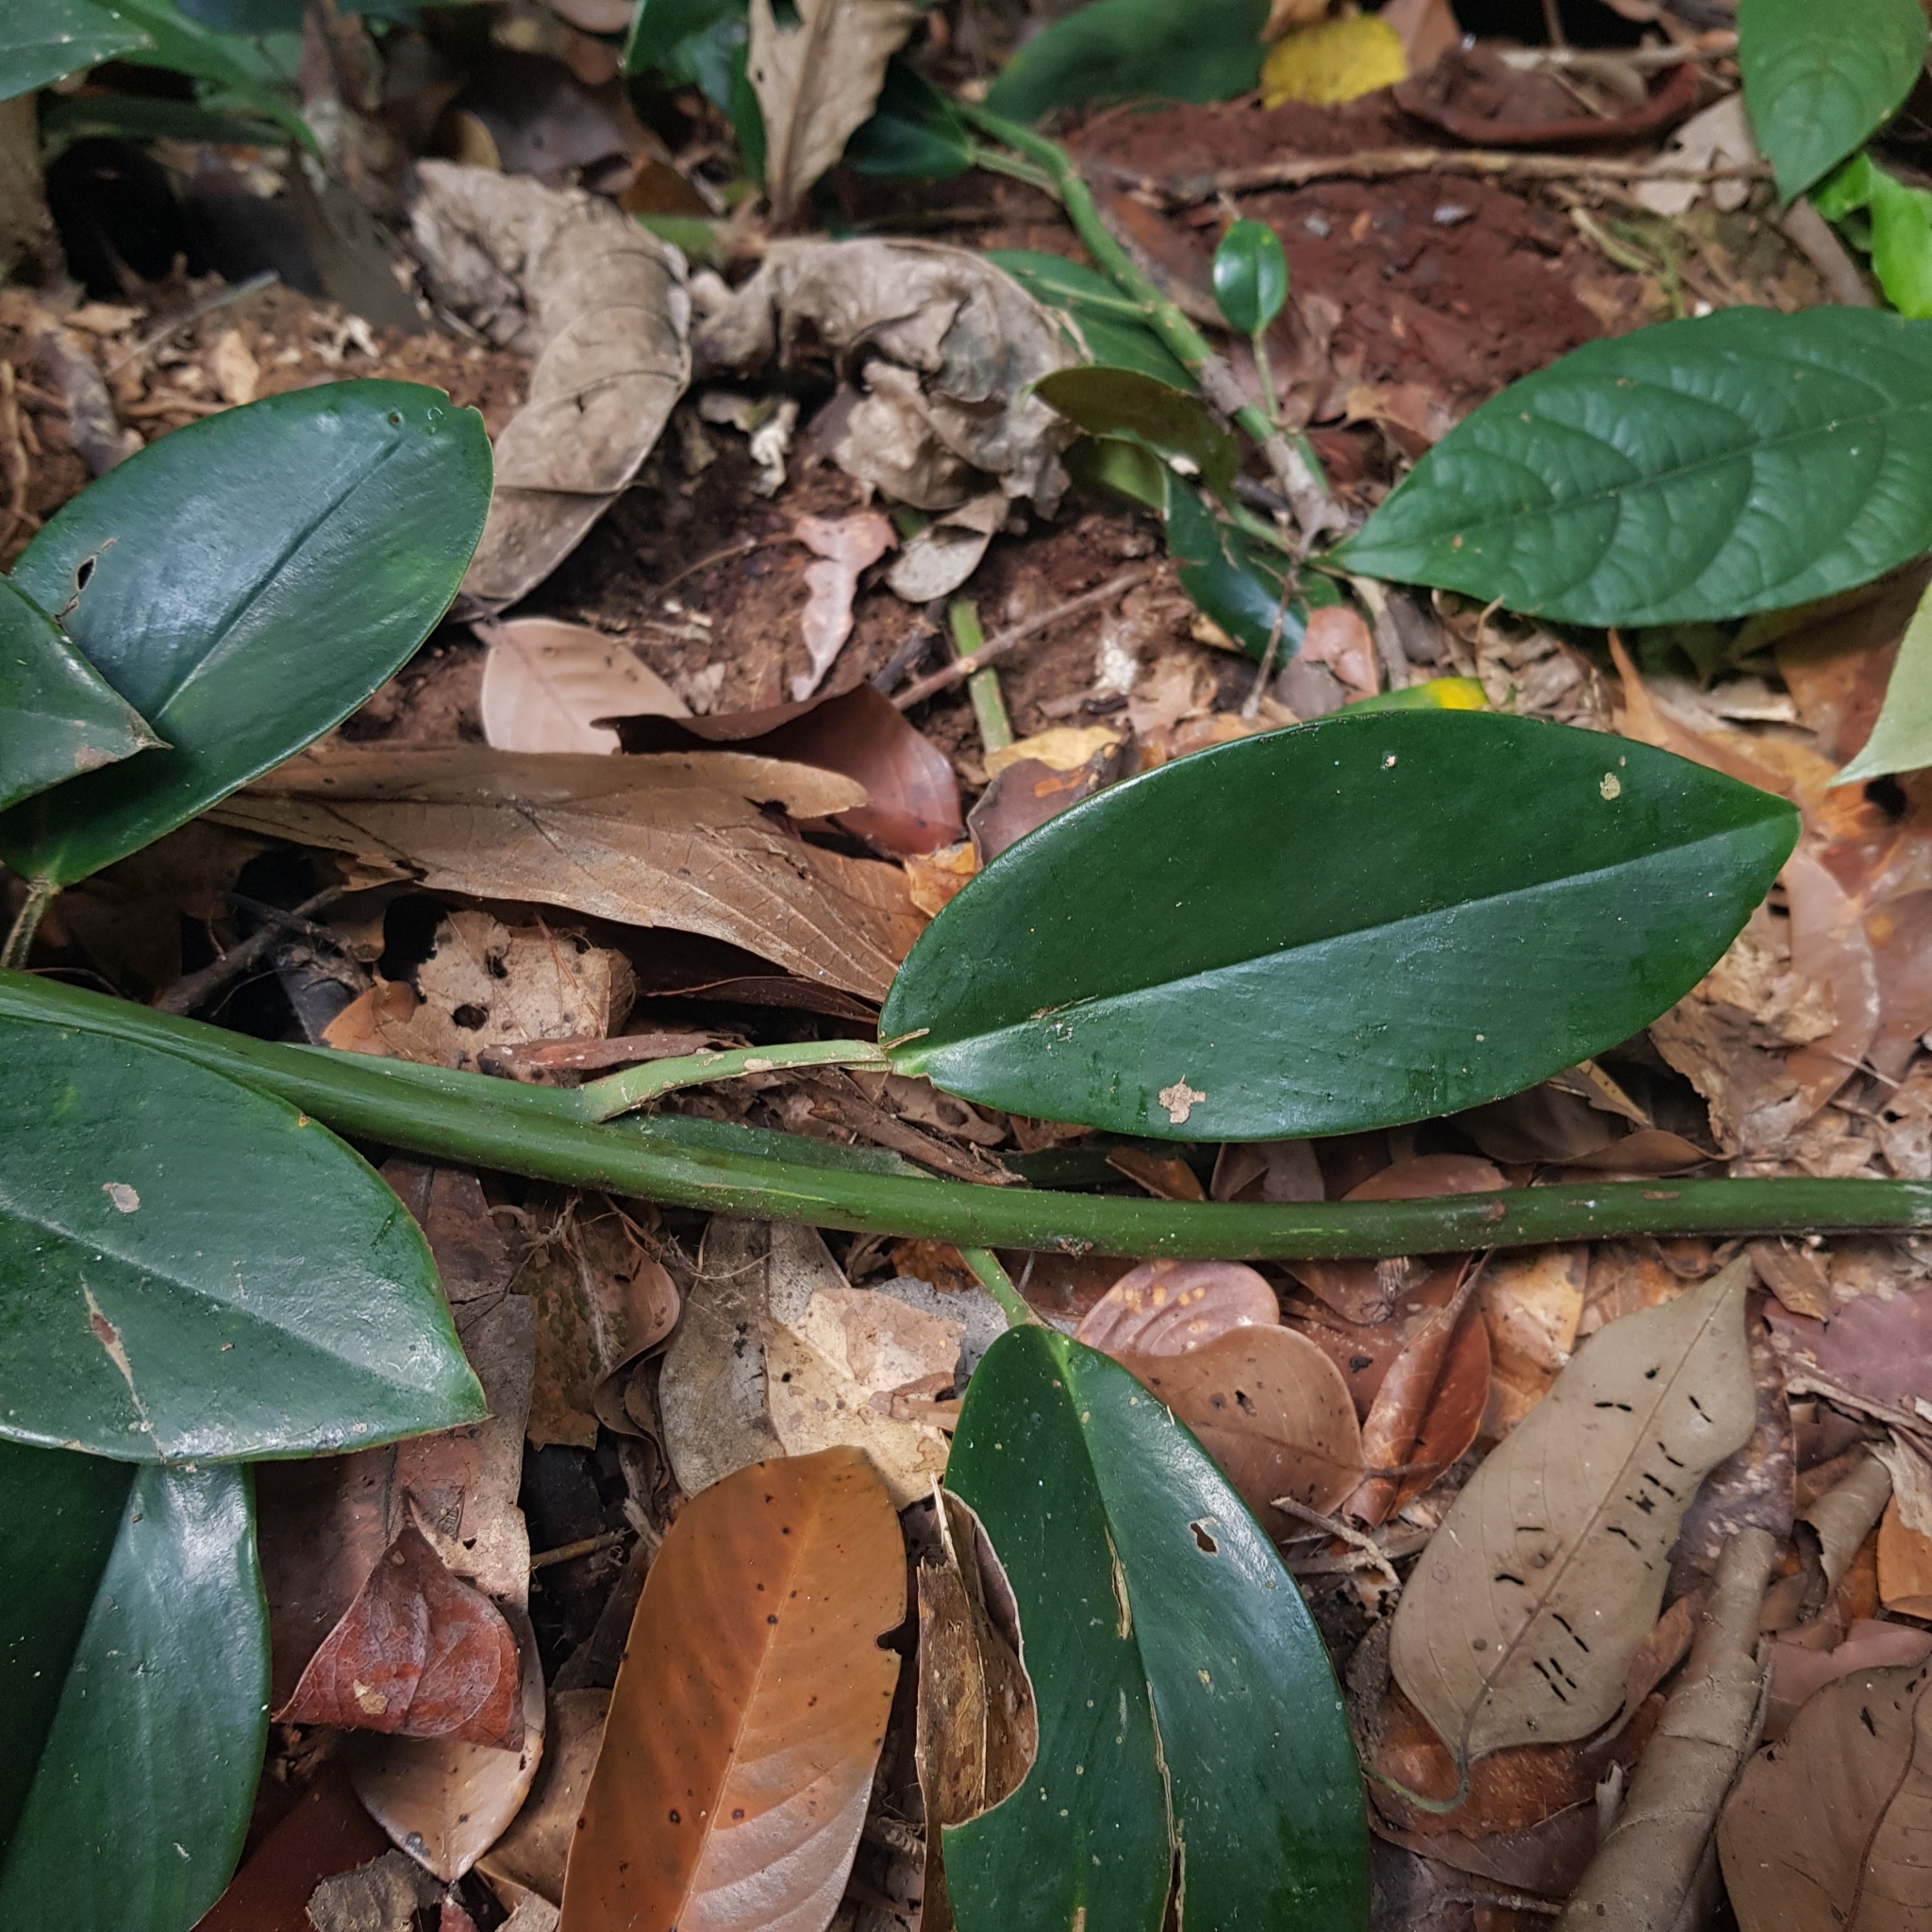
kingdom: Plantae
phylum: Tracheophyta
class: Liliopsida
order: Alismatales
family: Araceae
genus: Scindapsus
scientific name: Scindapsus hederaceus
